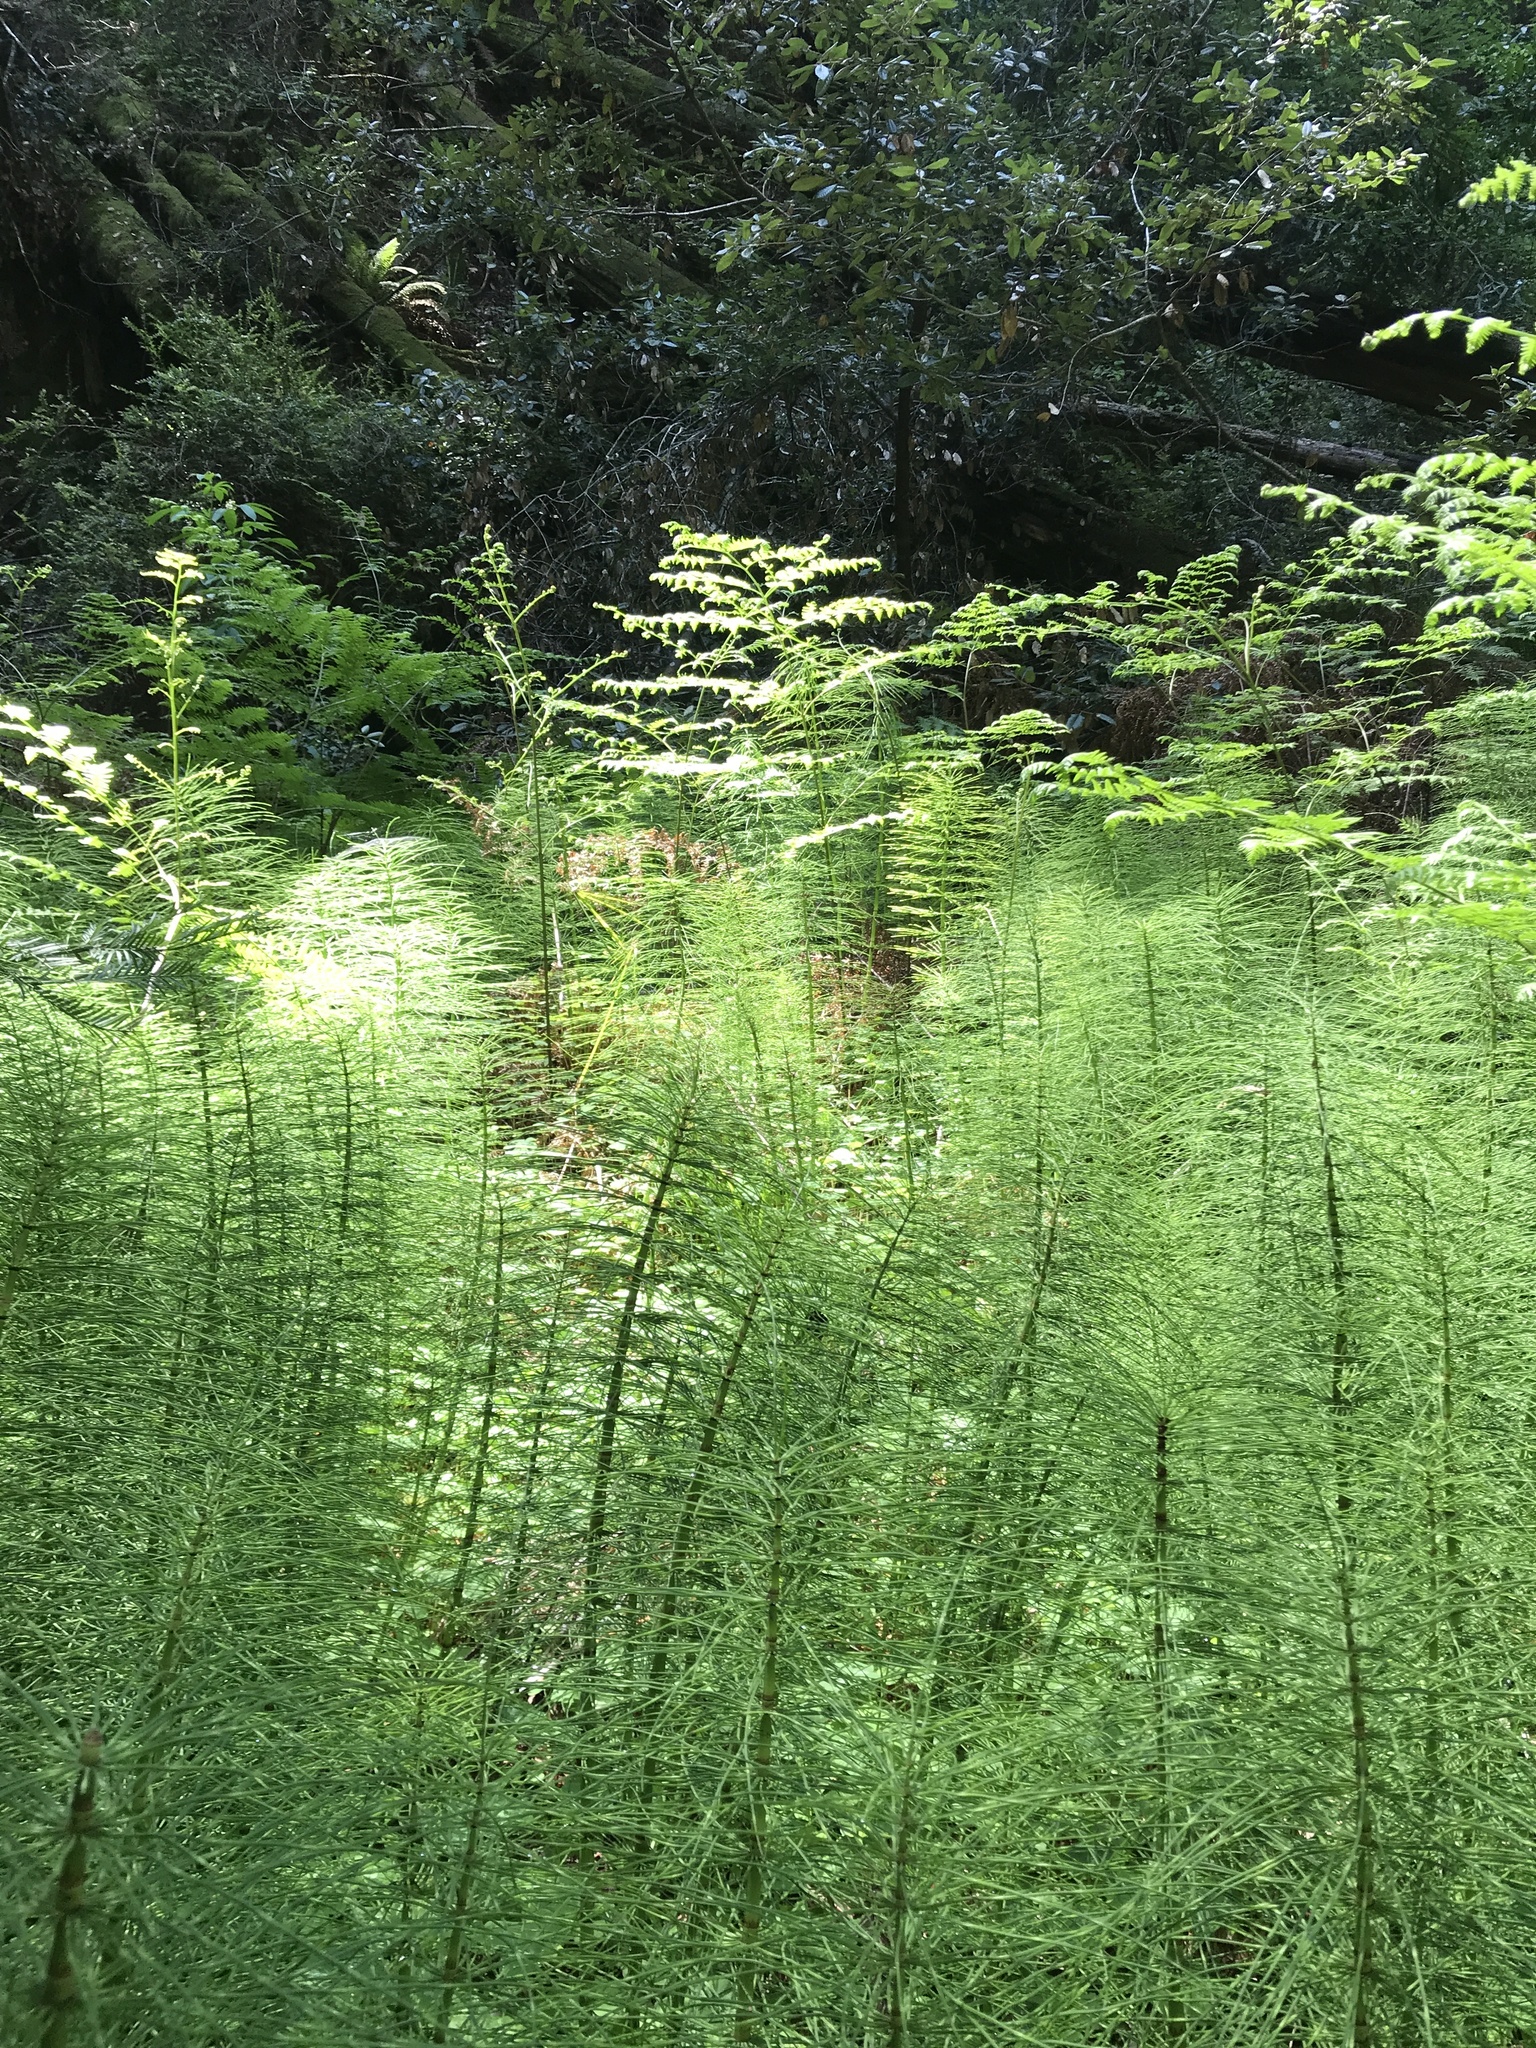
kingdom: Plantae
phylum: Tracheophyta
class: Polypodiopsida
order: Equisetales
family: Equisetaceae
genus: Equisetum
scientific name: Equisetum telmateia
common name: Great horsetail
